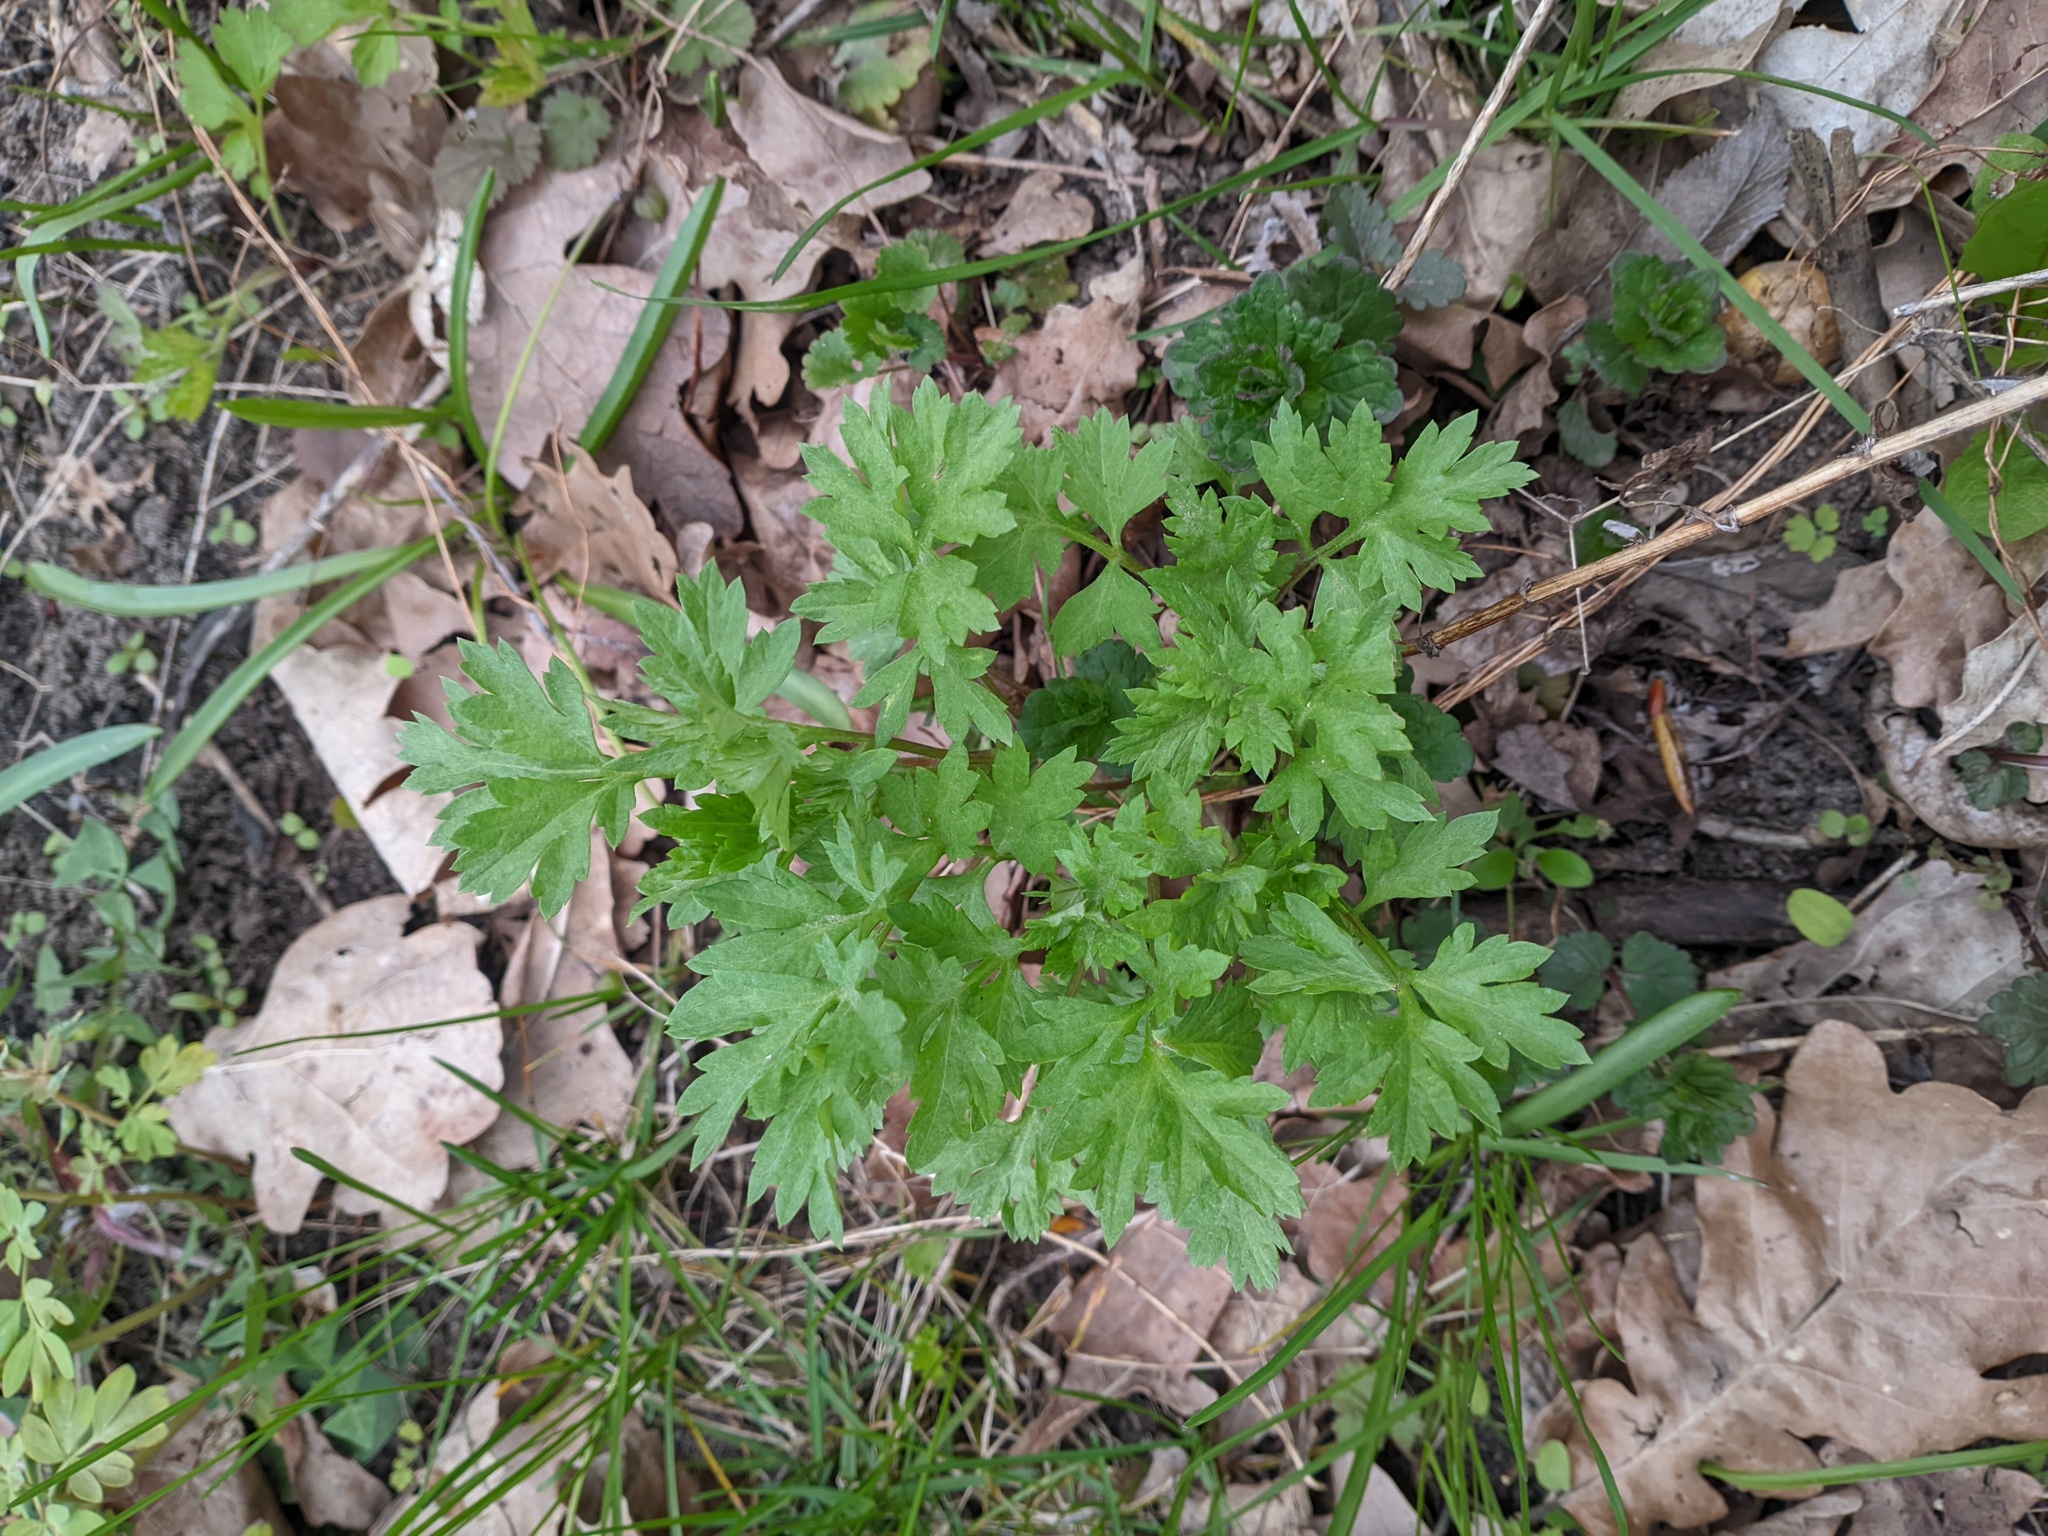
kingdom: Plantae
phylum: Tracheophyta
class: Magnoliopsida
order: Asterales
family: Asteraceae
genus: Artemisia
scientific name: Artemisia vulgaris
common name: Mugwort
